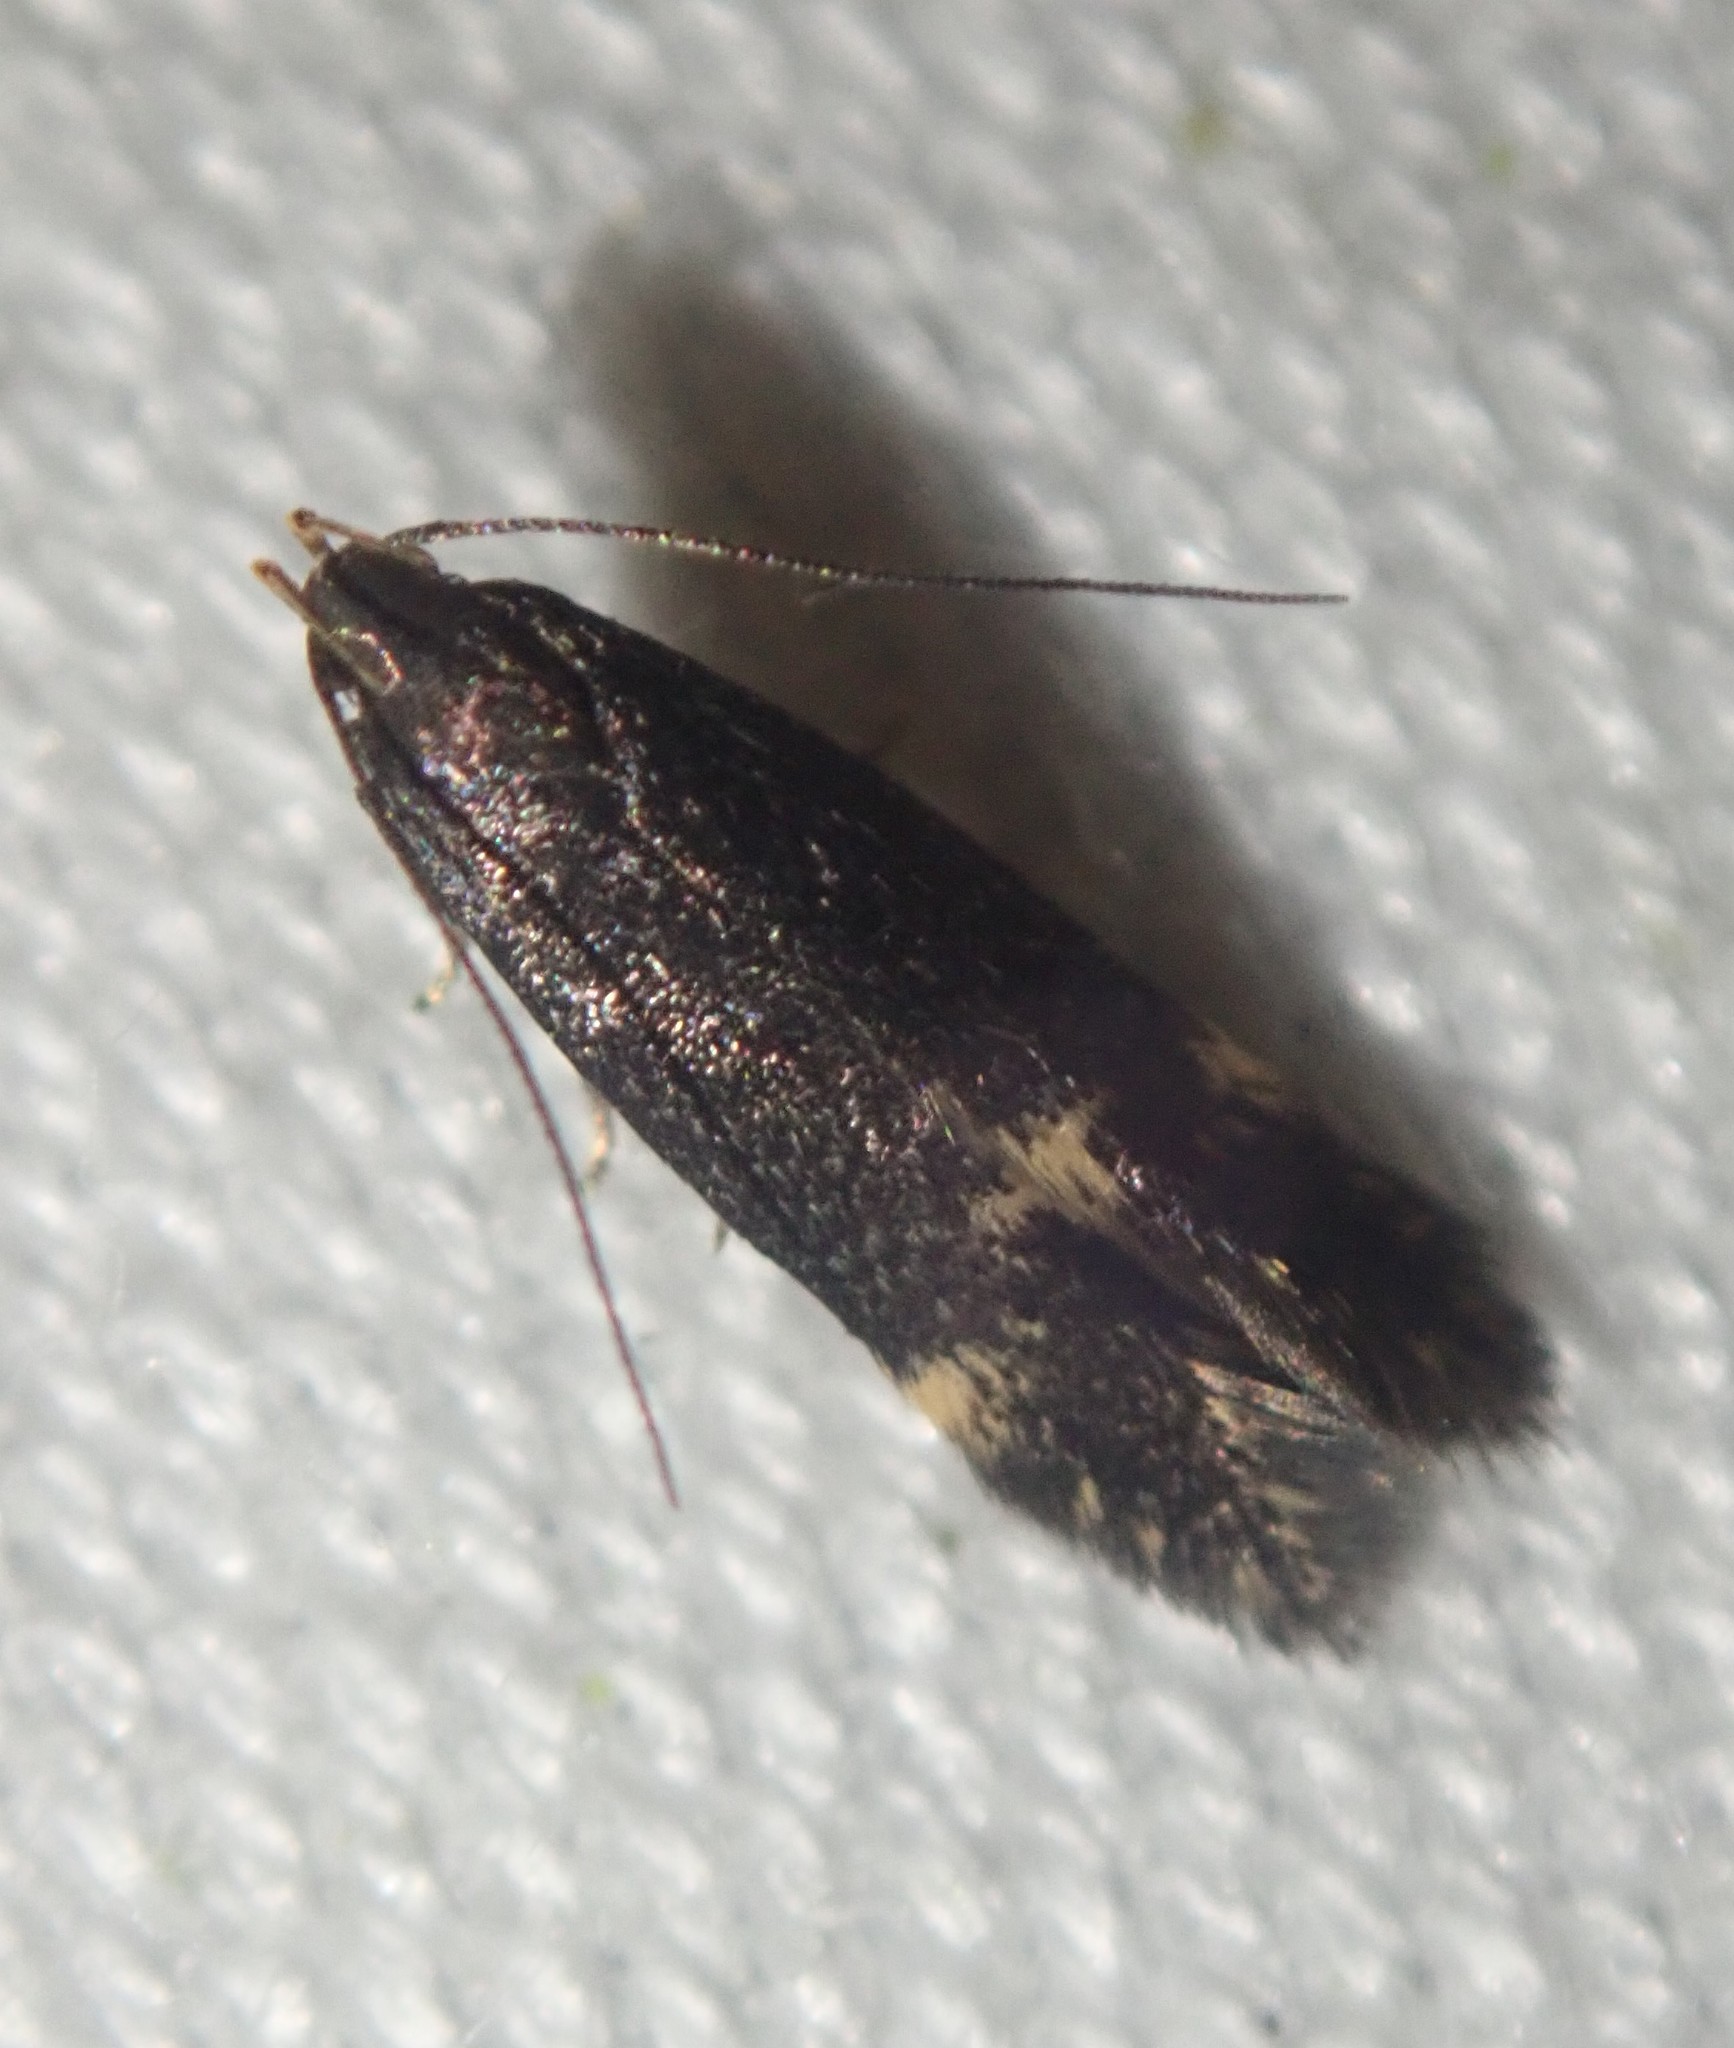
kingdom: Animalia
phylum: Arthropoda
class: Insecta
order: Lepidoptera
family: Gelechiidae
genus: Oxypteryx
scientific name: Oxypteryx atrella
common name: Two-spotted neb
